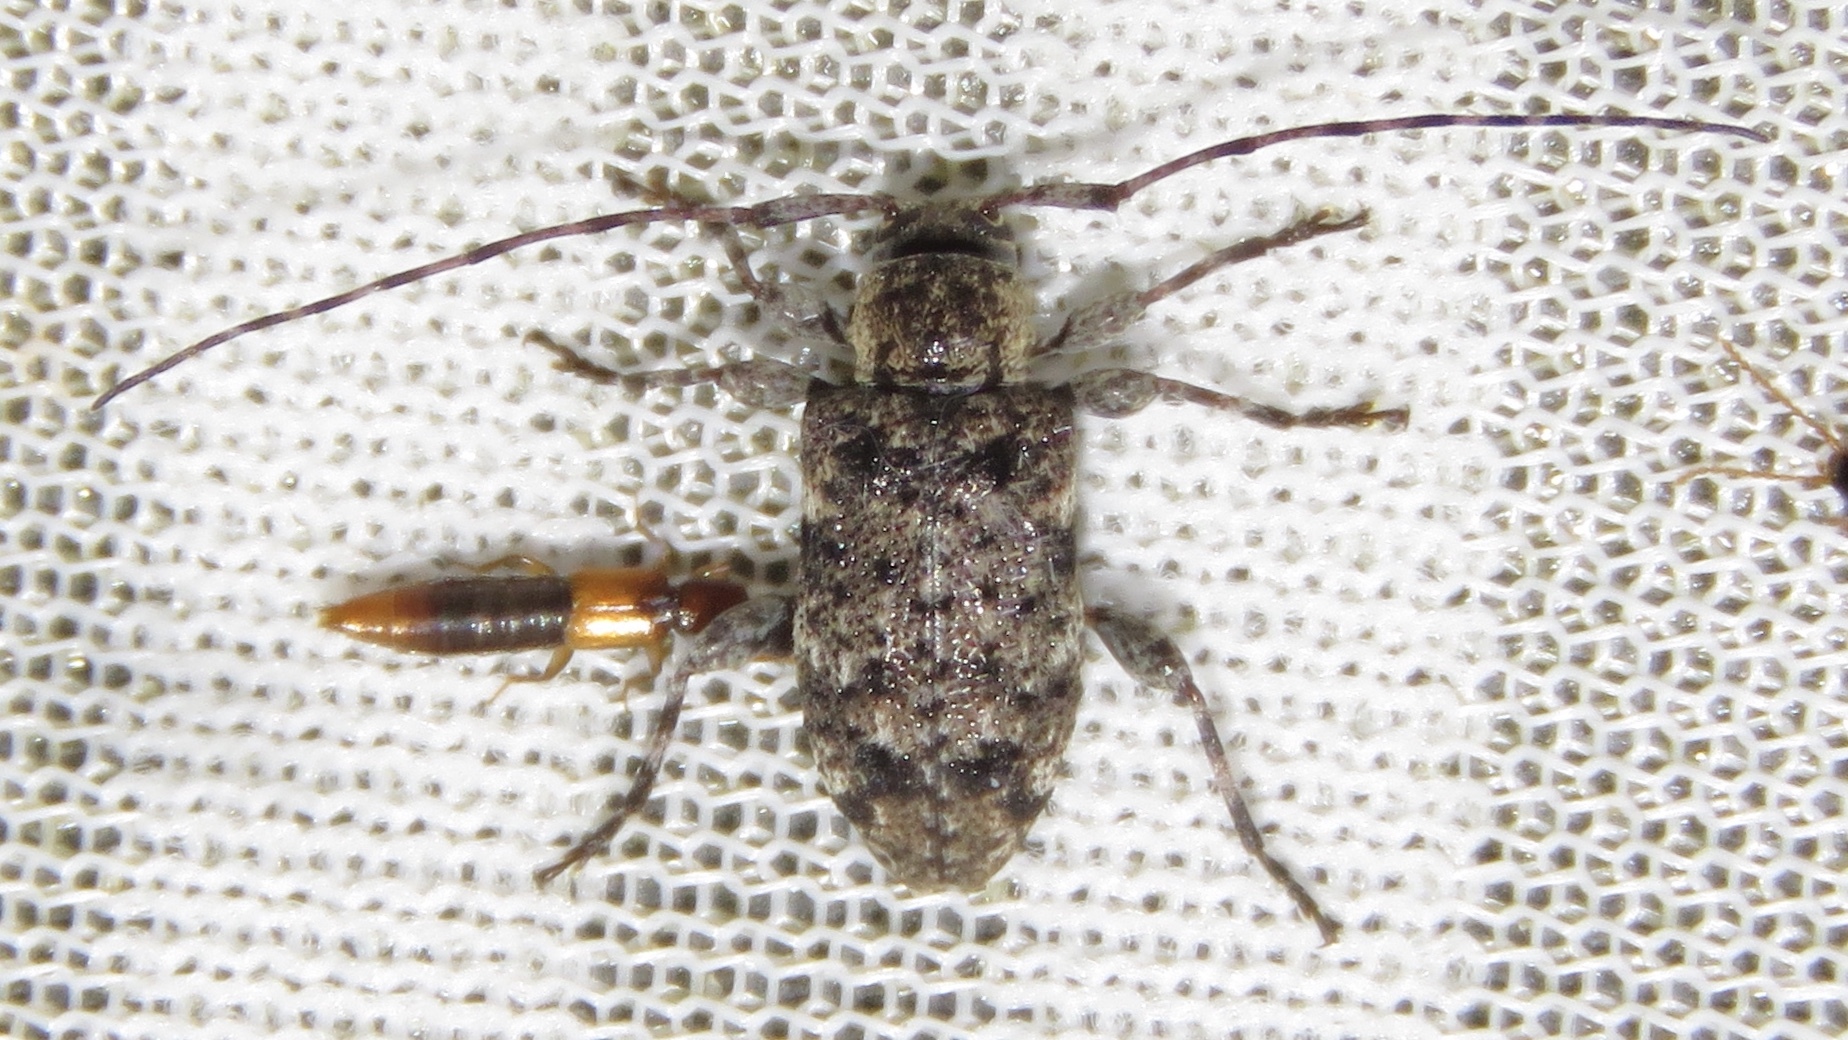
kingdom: Animalia
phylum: Arthropoda
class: Insecta
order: Coleoptera
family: Cerambycidae
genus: Astylopsis
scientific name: Astylopsis sexguttata
